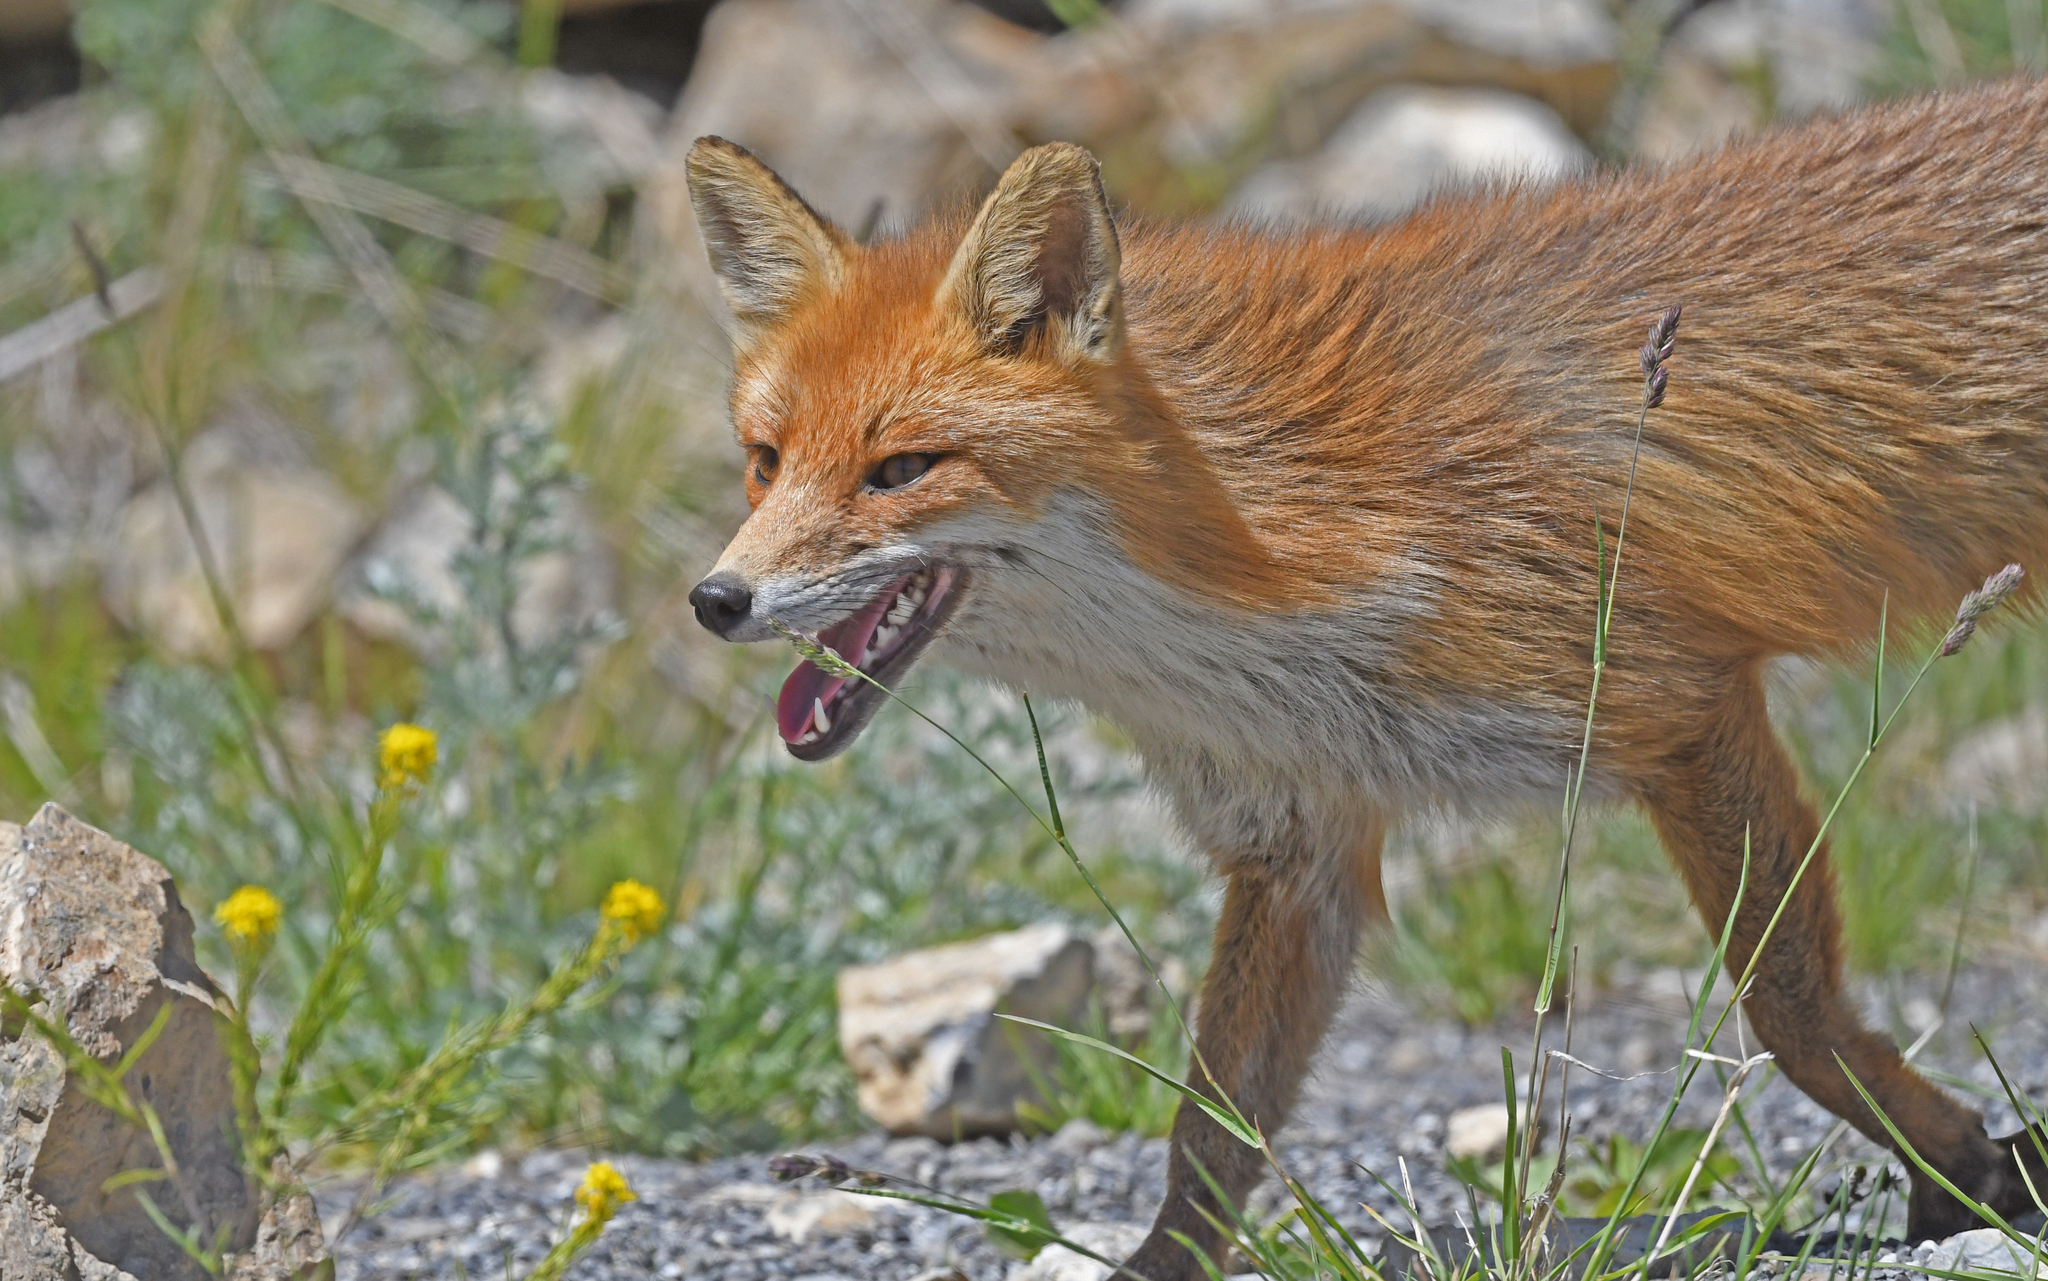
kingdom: Animalia
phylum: Chordata
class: Mammalia
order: Carnivora
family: Canidae
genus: Vulpes
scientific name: Vulpes vulpes
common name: Red fox
